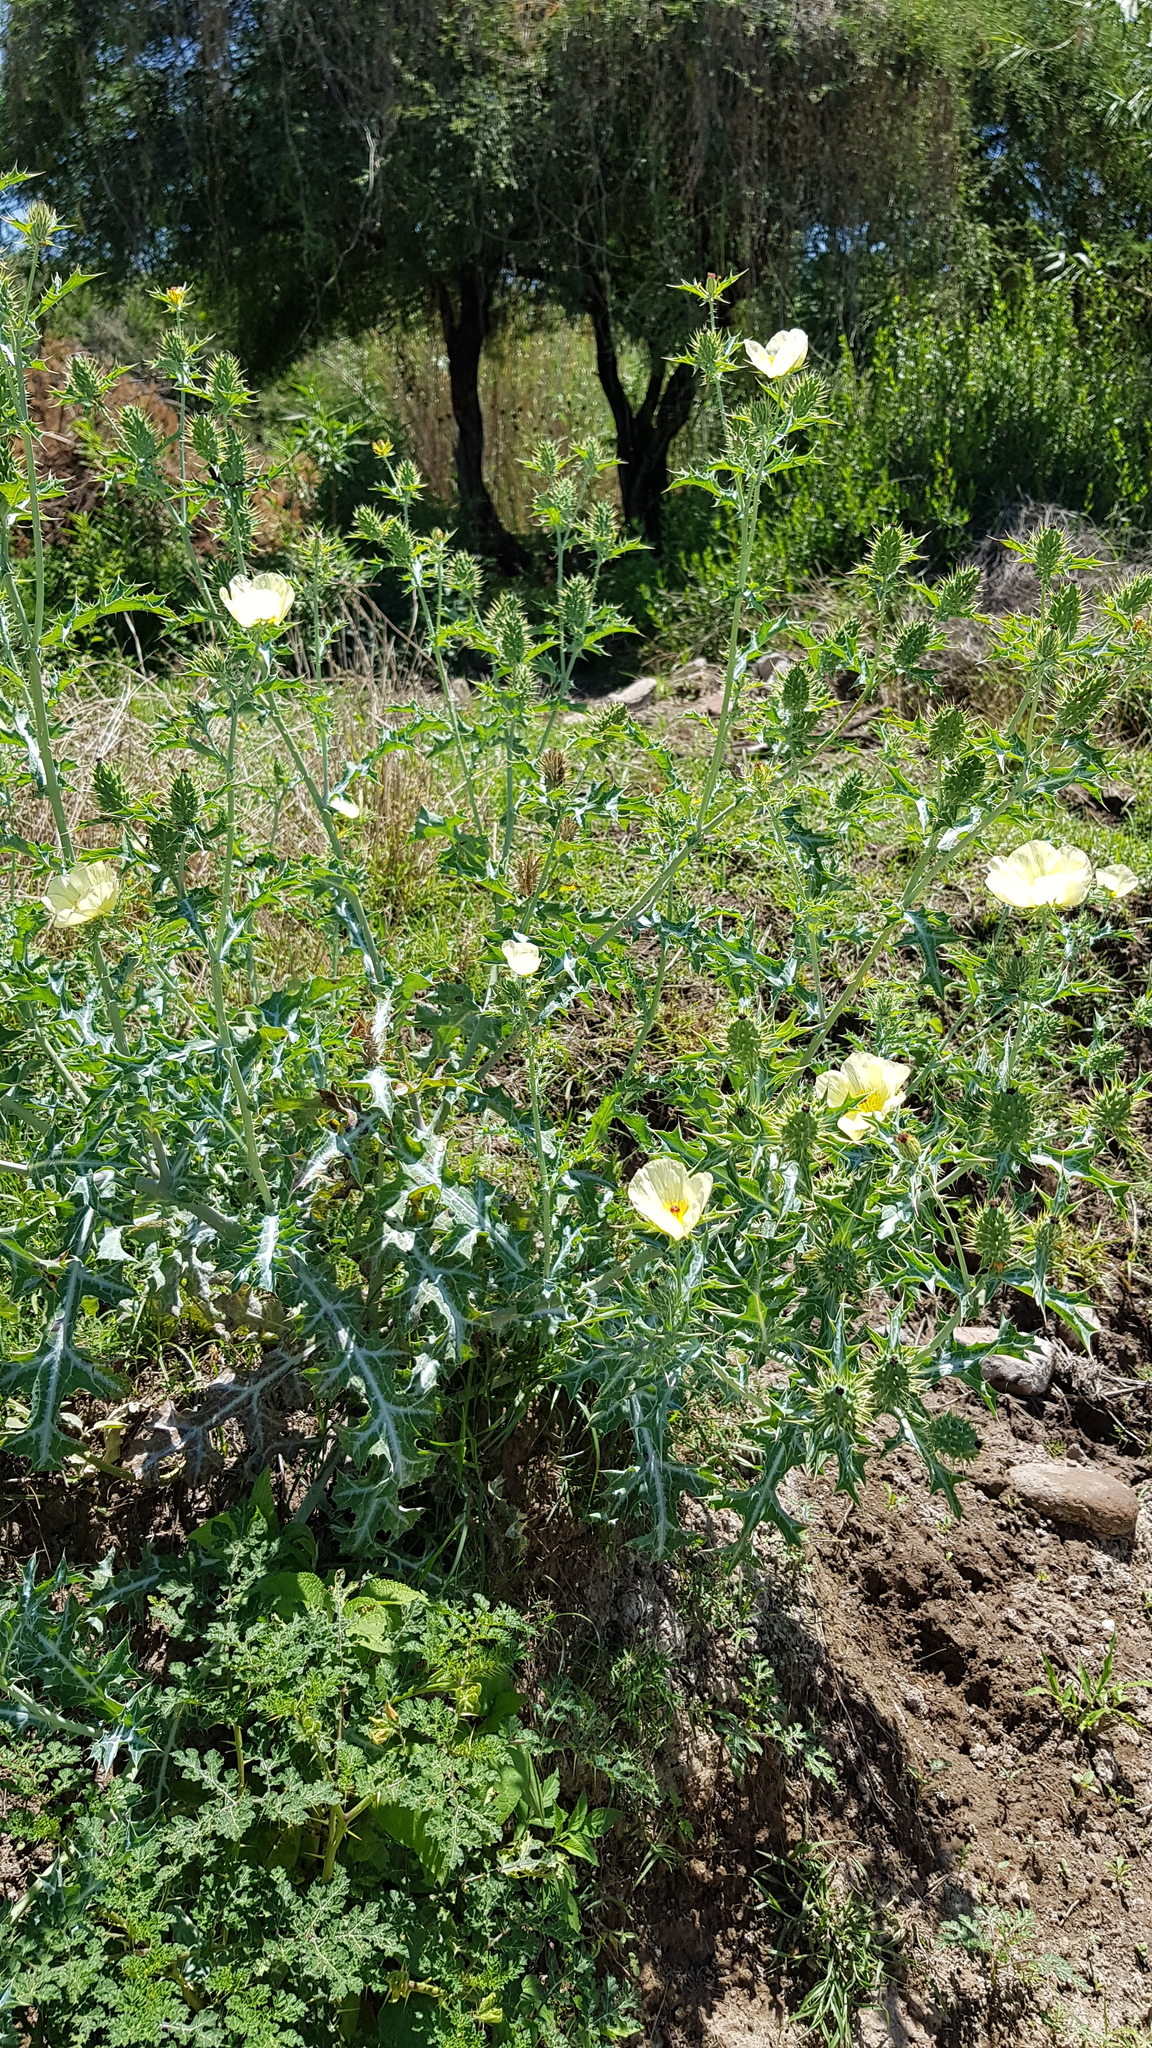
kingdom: Plantae
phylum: Tracheophyta
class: Magnoliopsida
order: Ranunculales
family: Papaveraceae
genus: Argemone
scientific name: Argemone ochroleuca
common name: White-flower mexican-poppy
